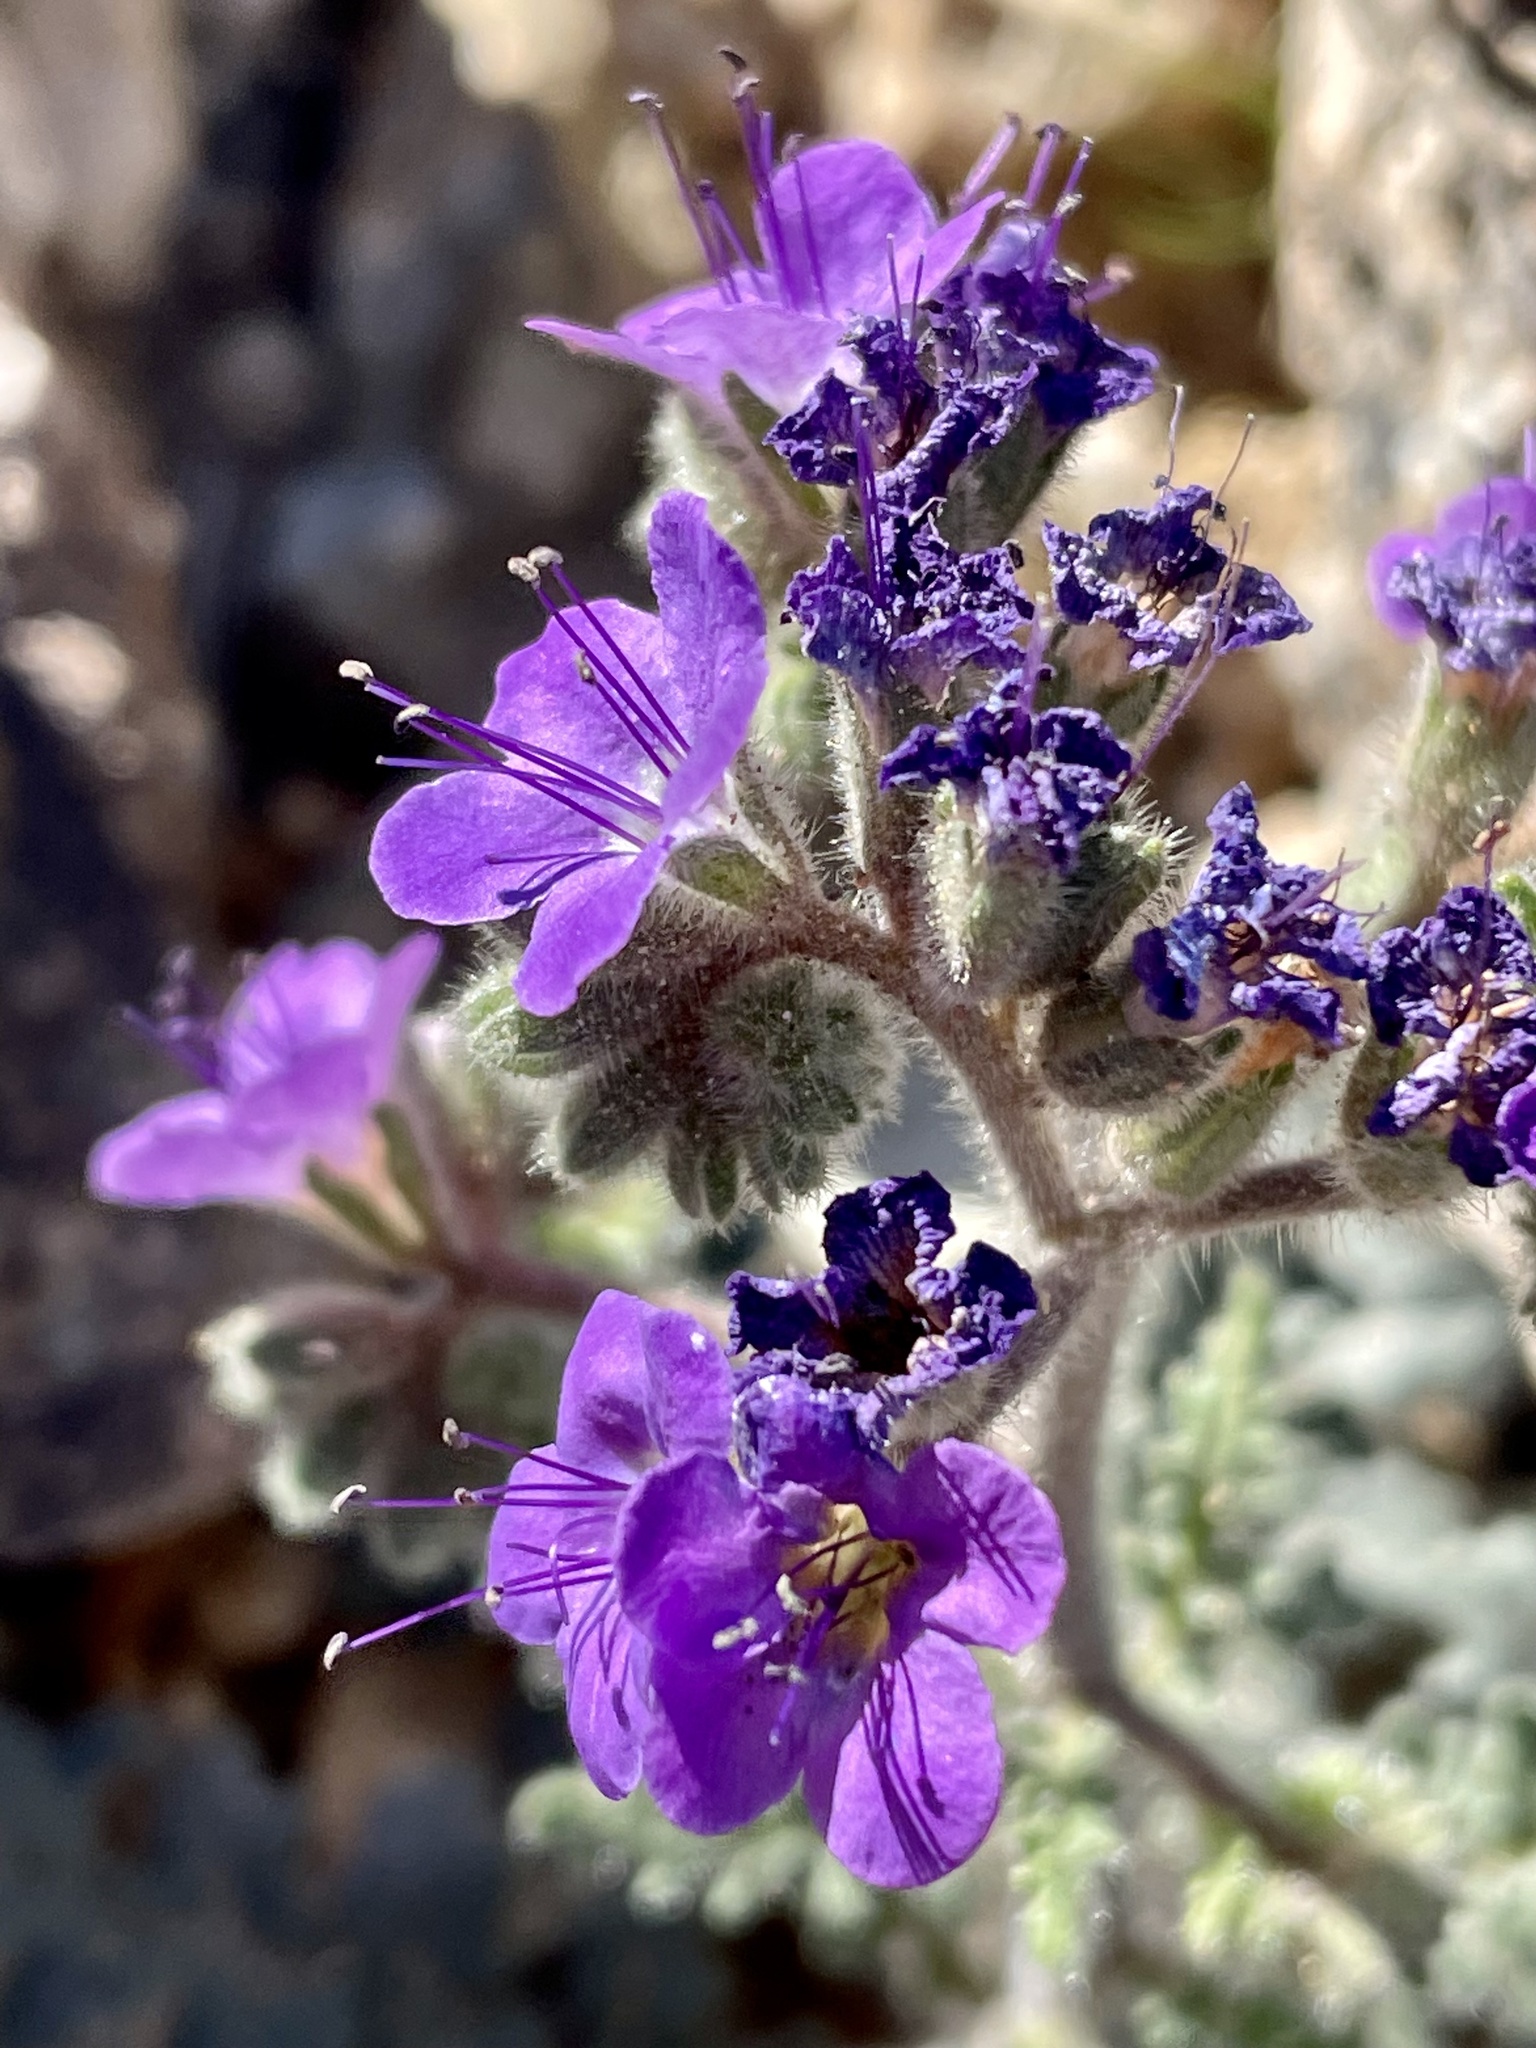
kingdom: Plantae
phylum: Tracheophyta
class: Magnoliopsida
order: Boraginales
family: Hydrophyllaceae
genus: Phacelia
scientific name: Phacelia crenulata
